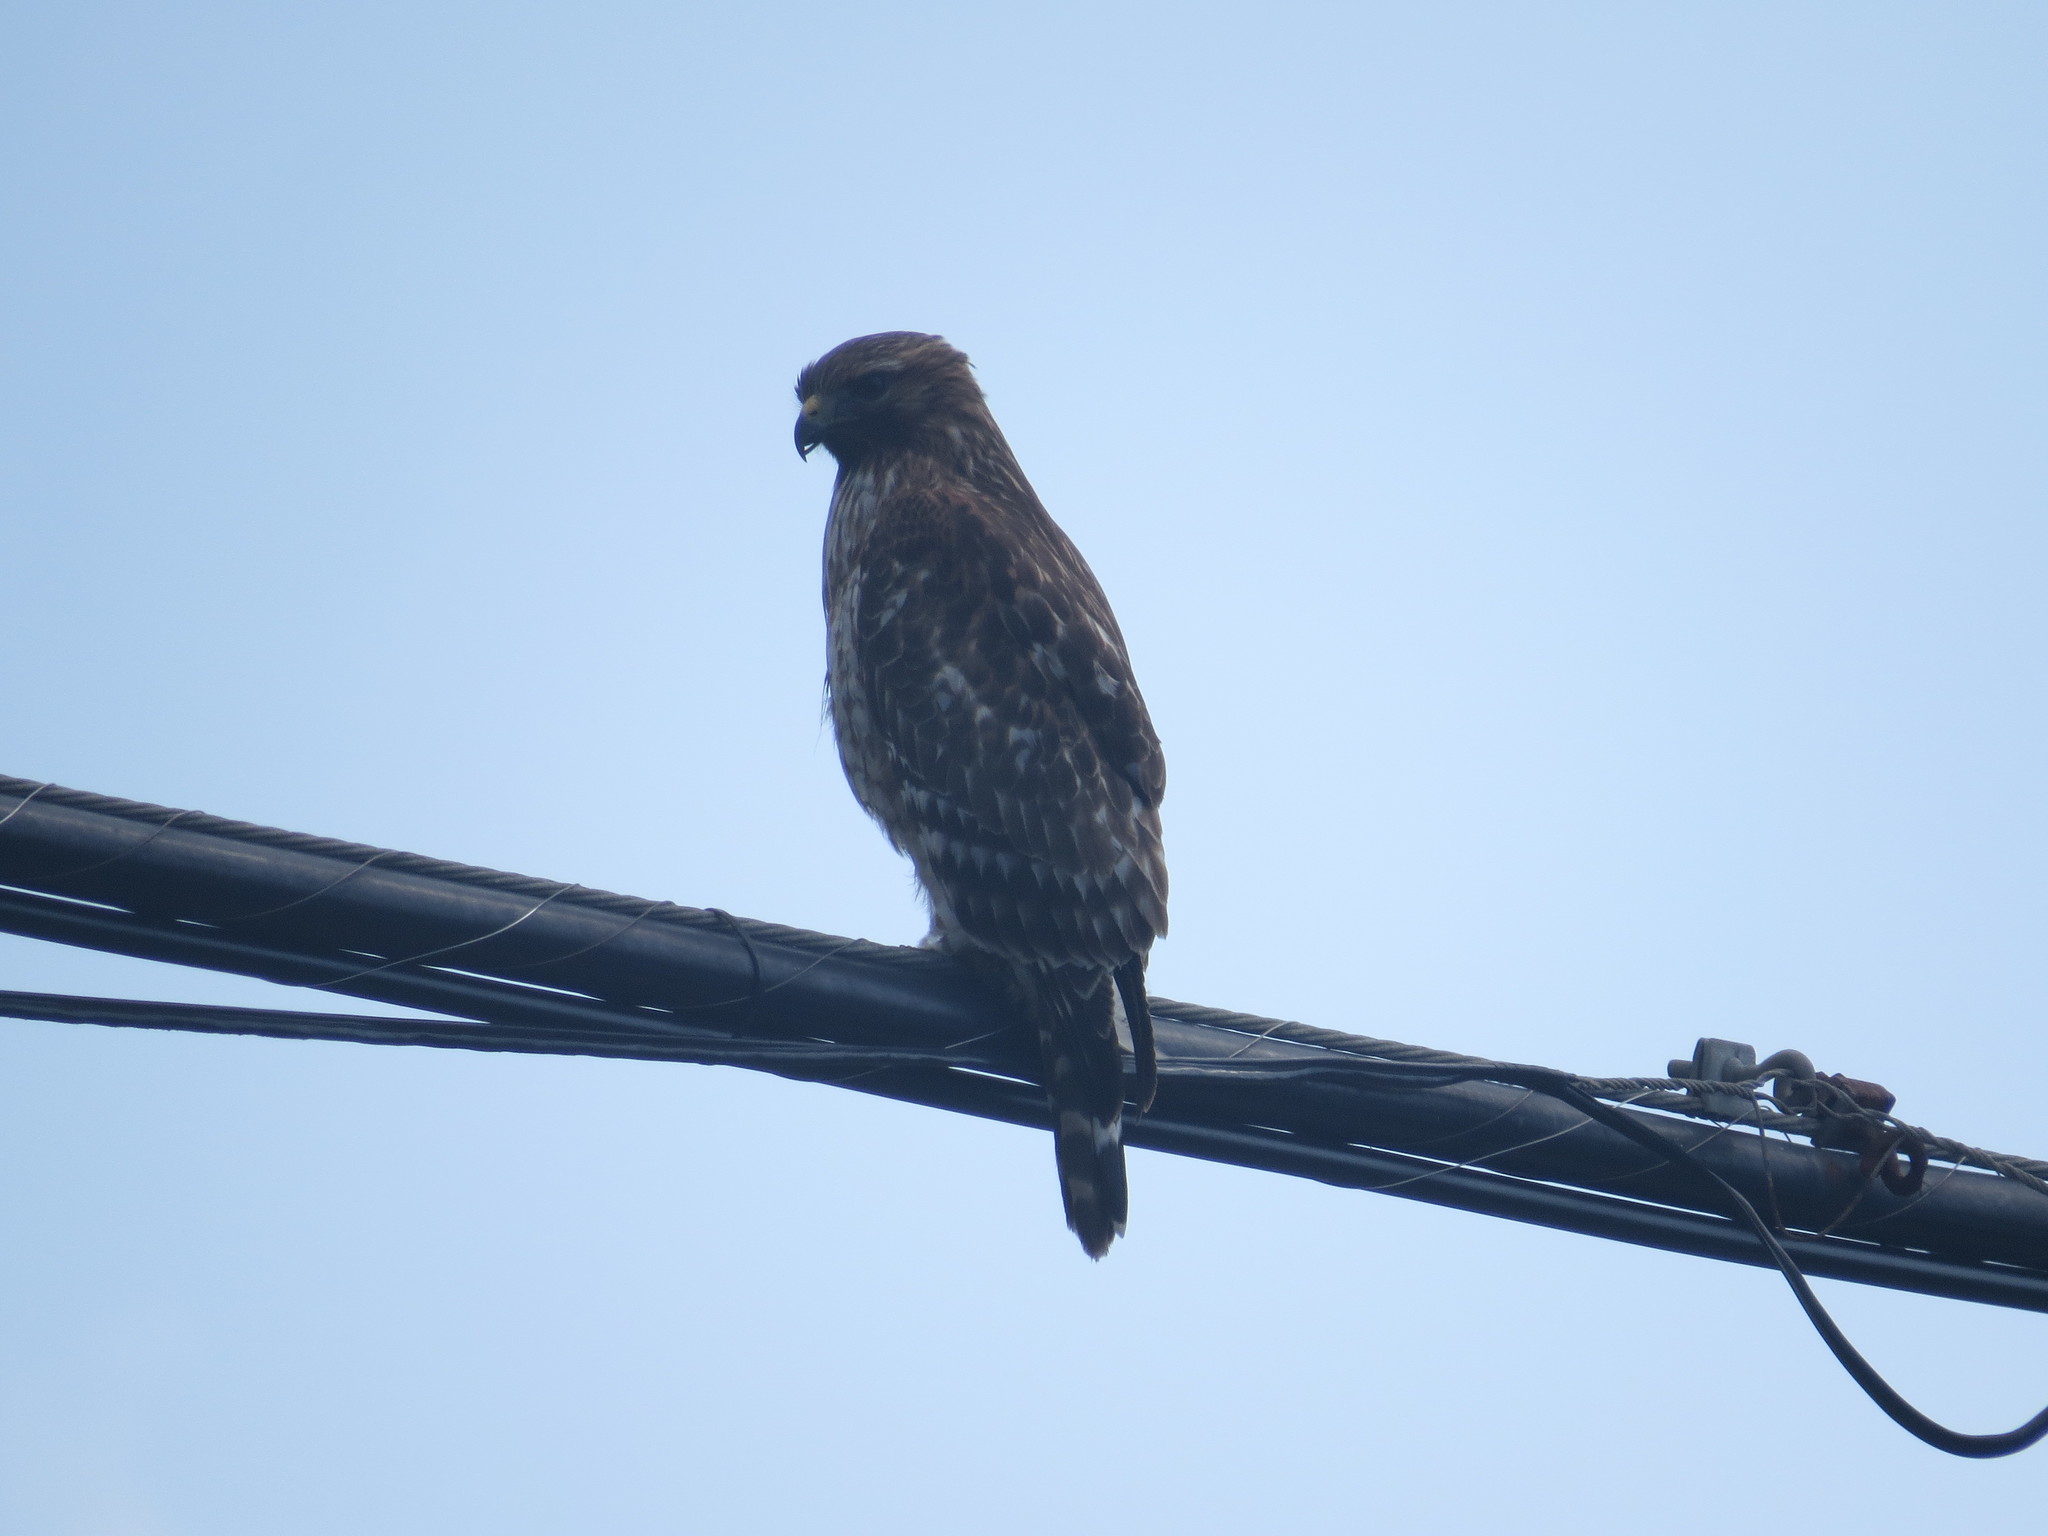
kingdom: Animalia
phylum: Chordata
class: Aves
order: Accipitriformes
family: Accipitridae
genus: Buteo
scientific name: Buteo lineatus
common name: Red-shouldered hawk
